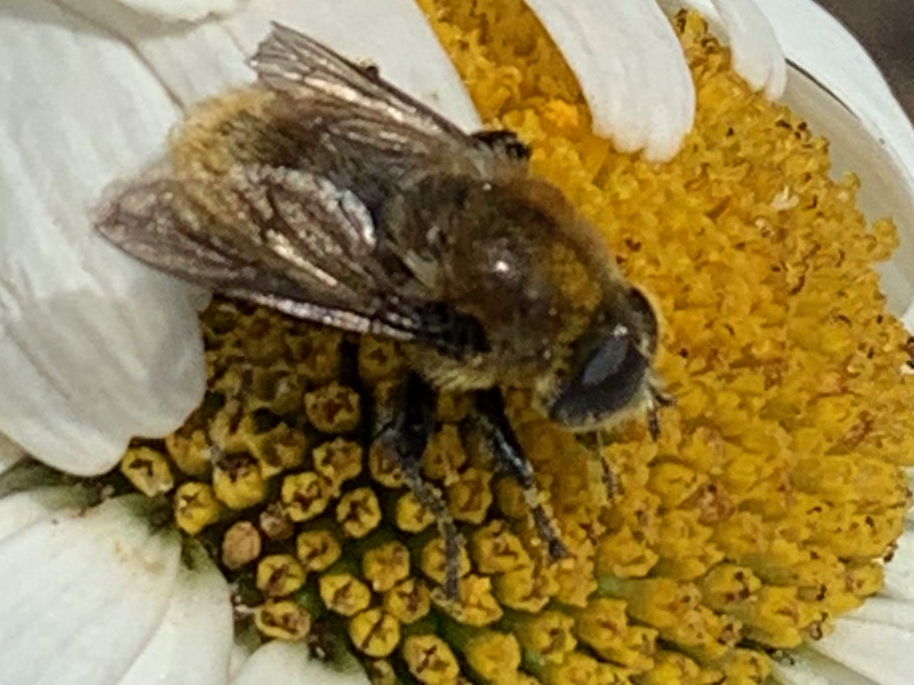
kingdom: Animalia
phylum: Arthropoda
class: Insecta
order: Diptera
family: Syrphidae
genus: Merodon
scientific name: Merodon equestris
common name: Greater bulb-fly
